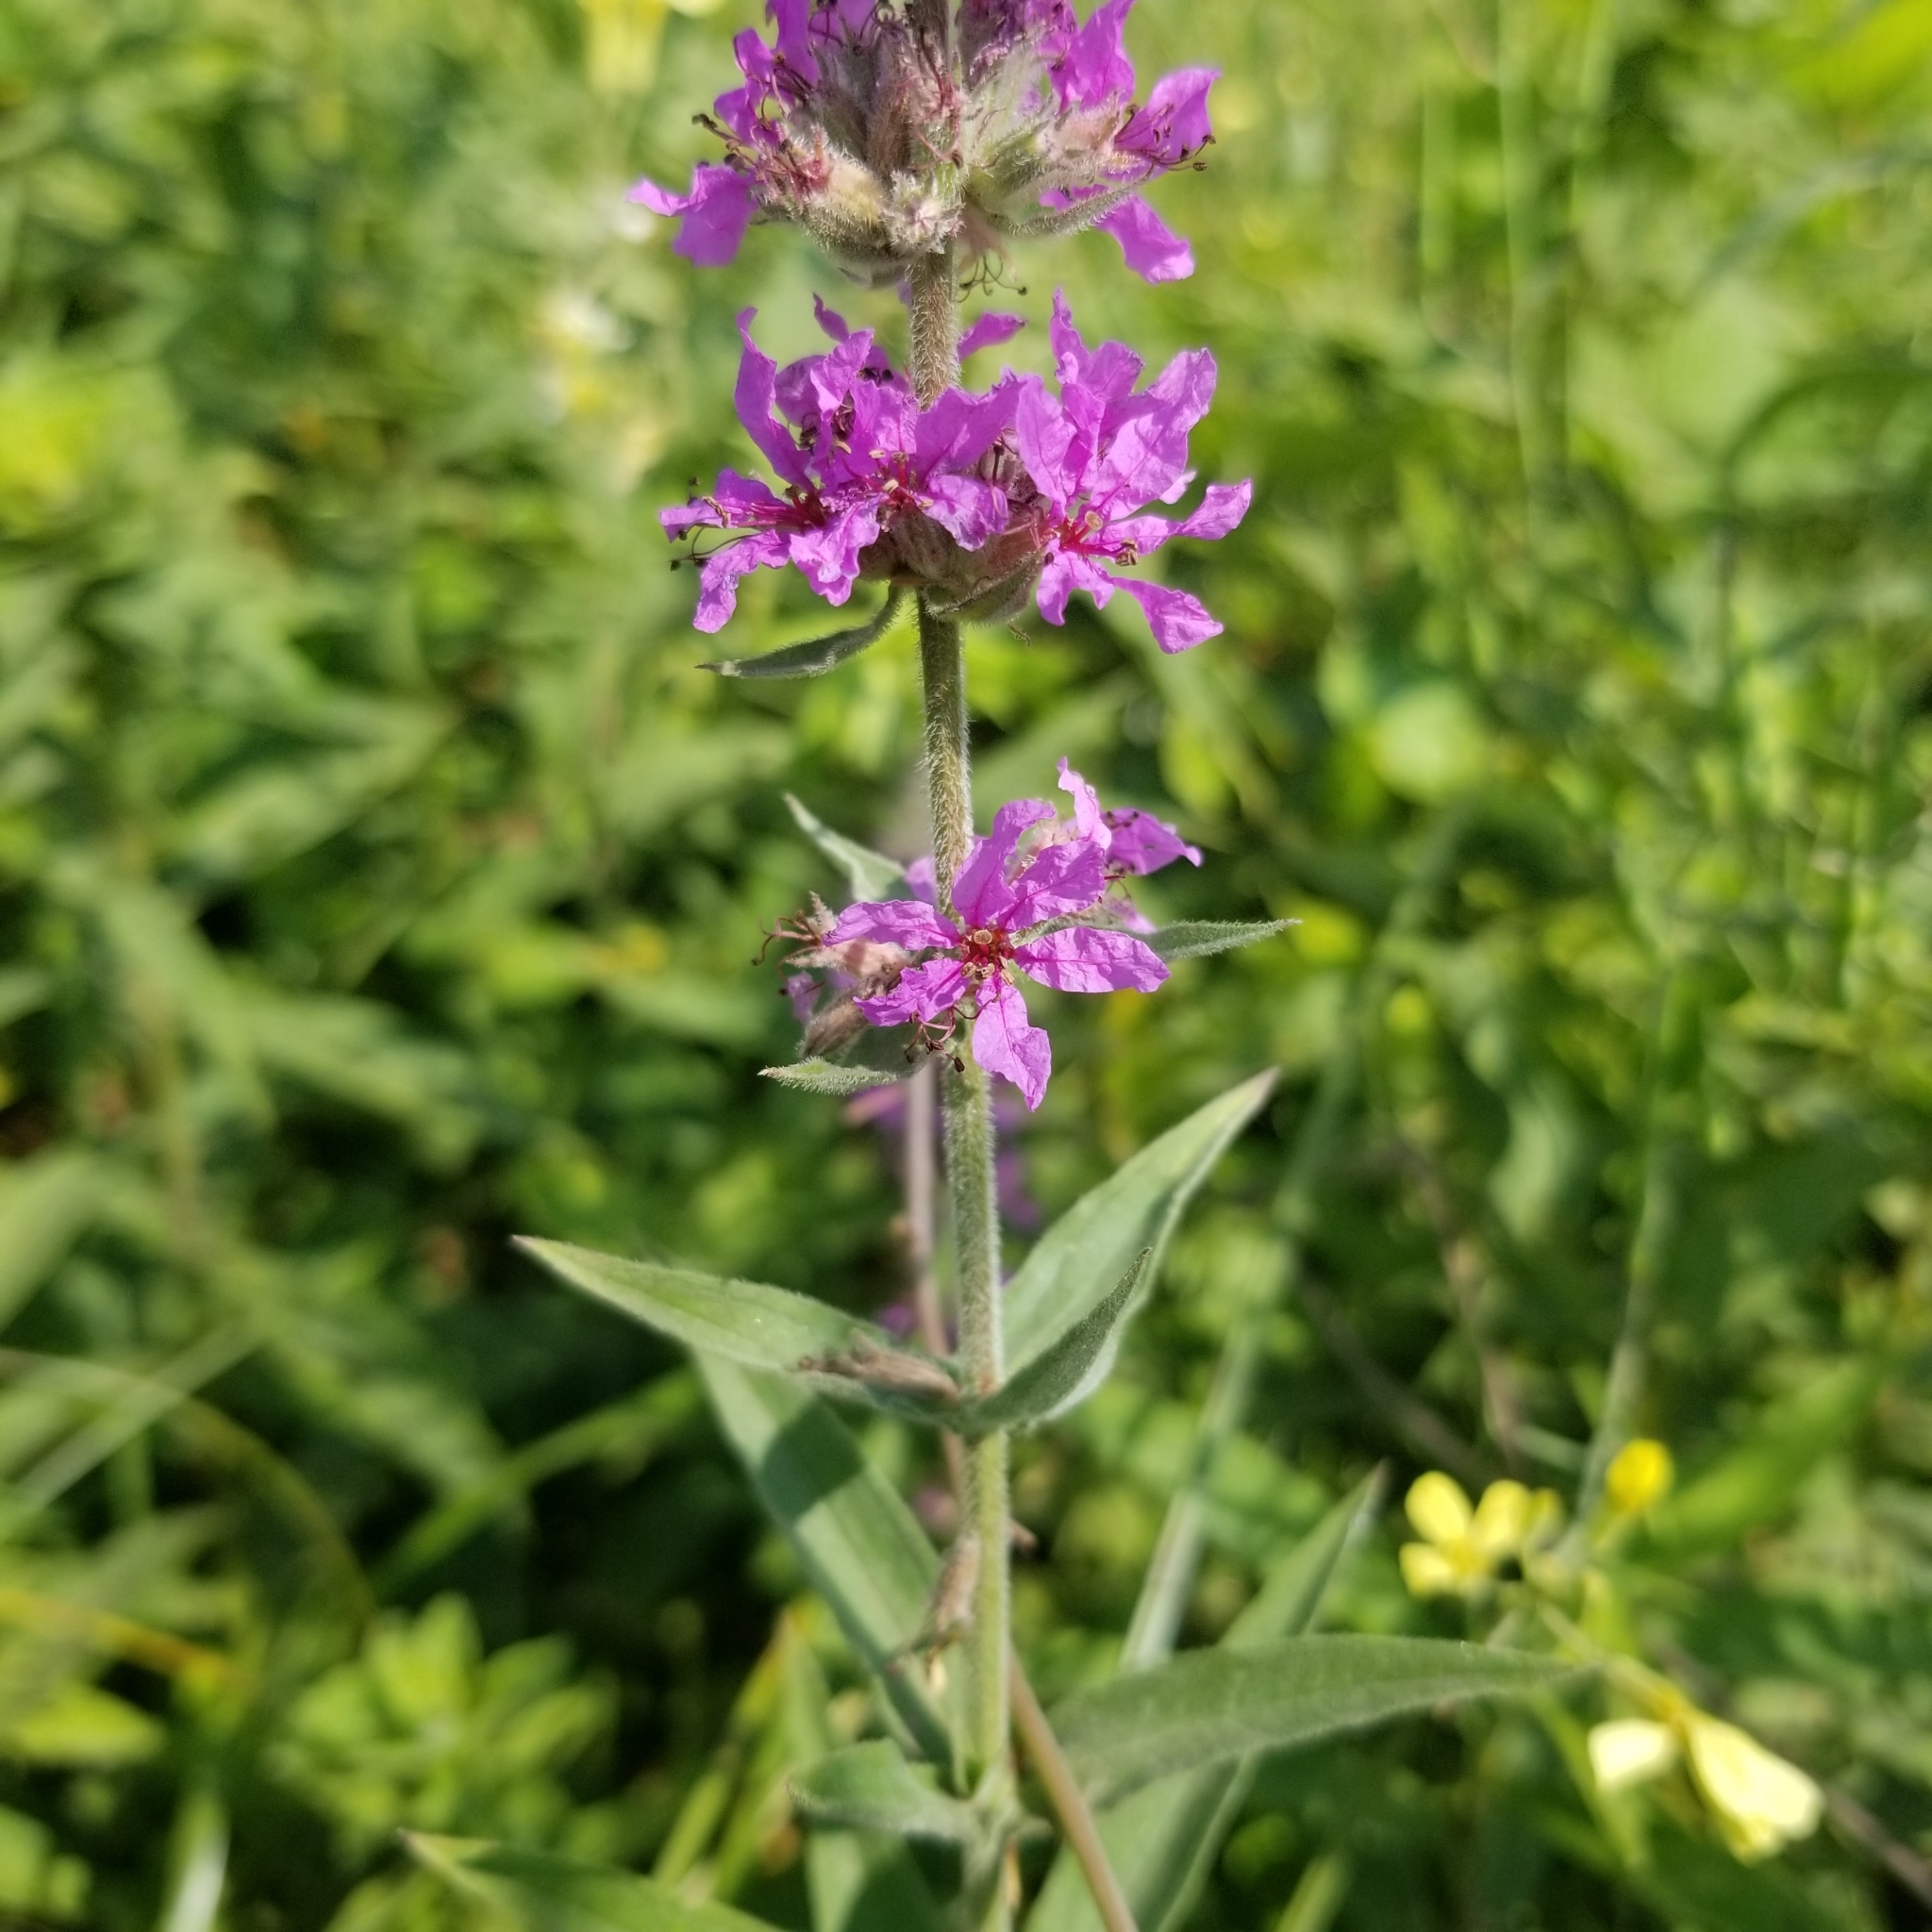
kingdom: Plantae
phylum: Tracheophyta
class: Magnoliopsida
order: Myrtales
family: Lythraceae
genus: Lythrum
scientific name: Lythrum salicaria
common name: Purple loosestrife
